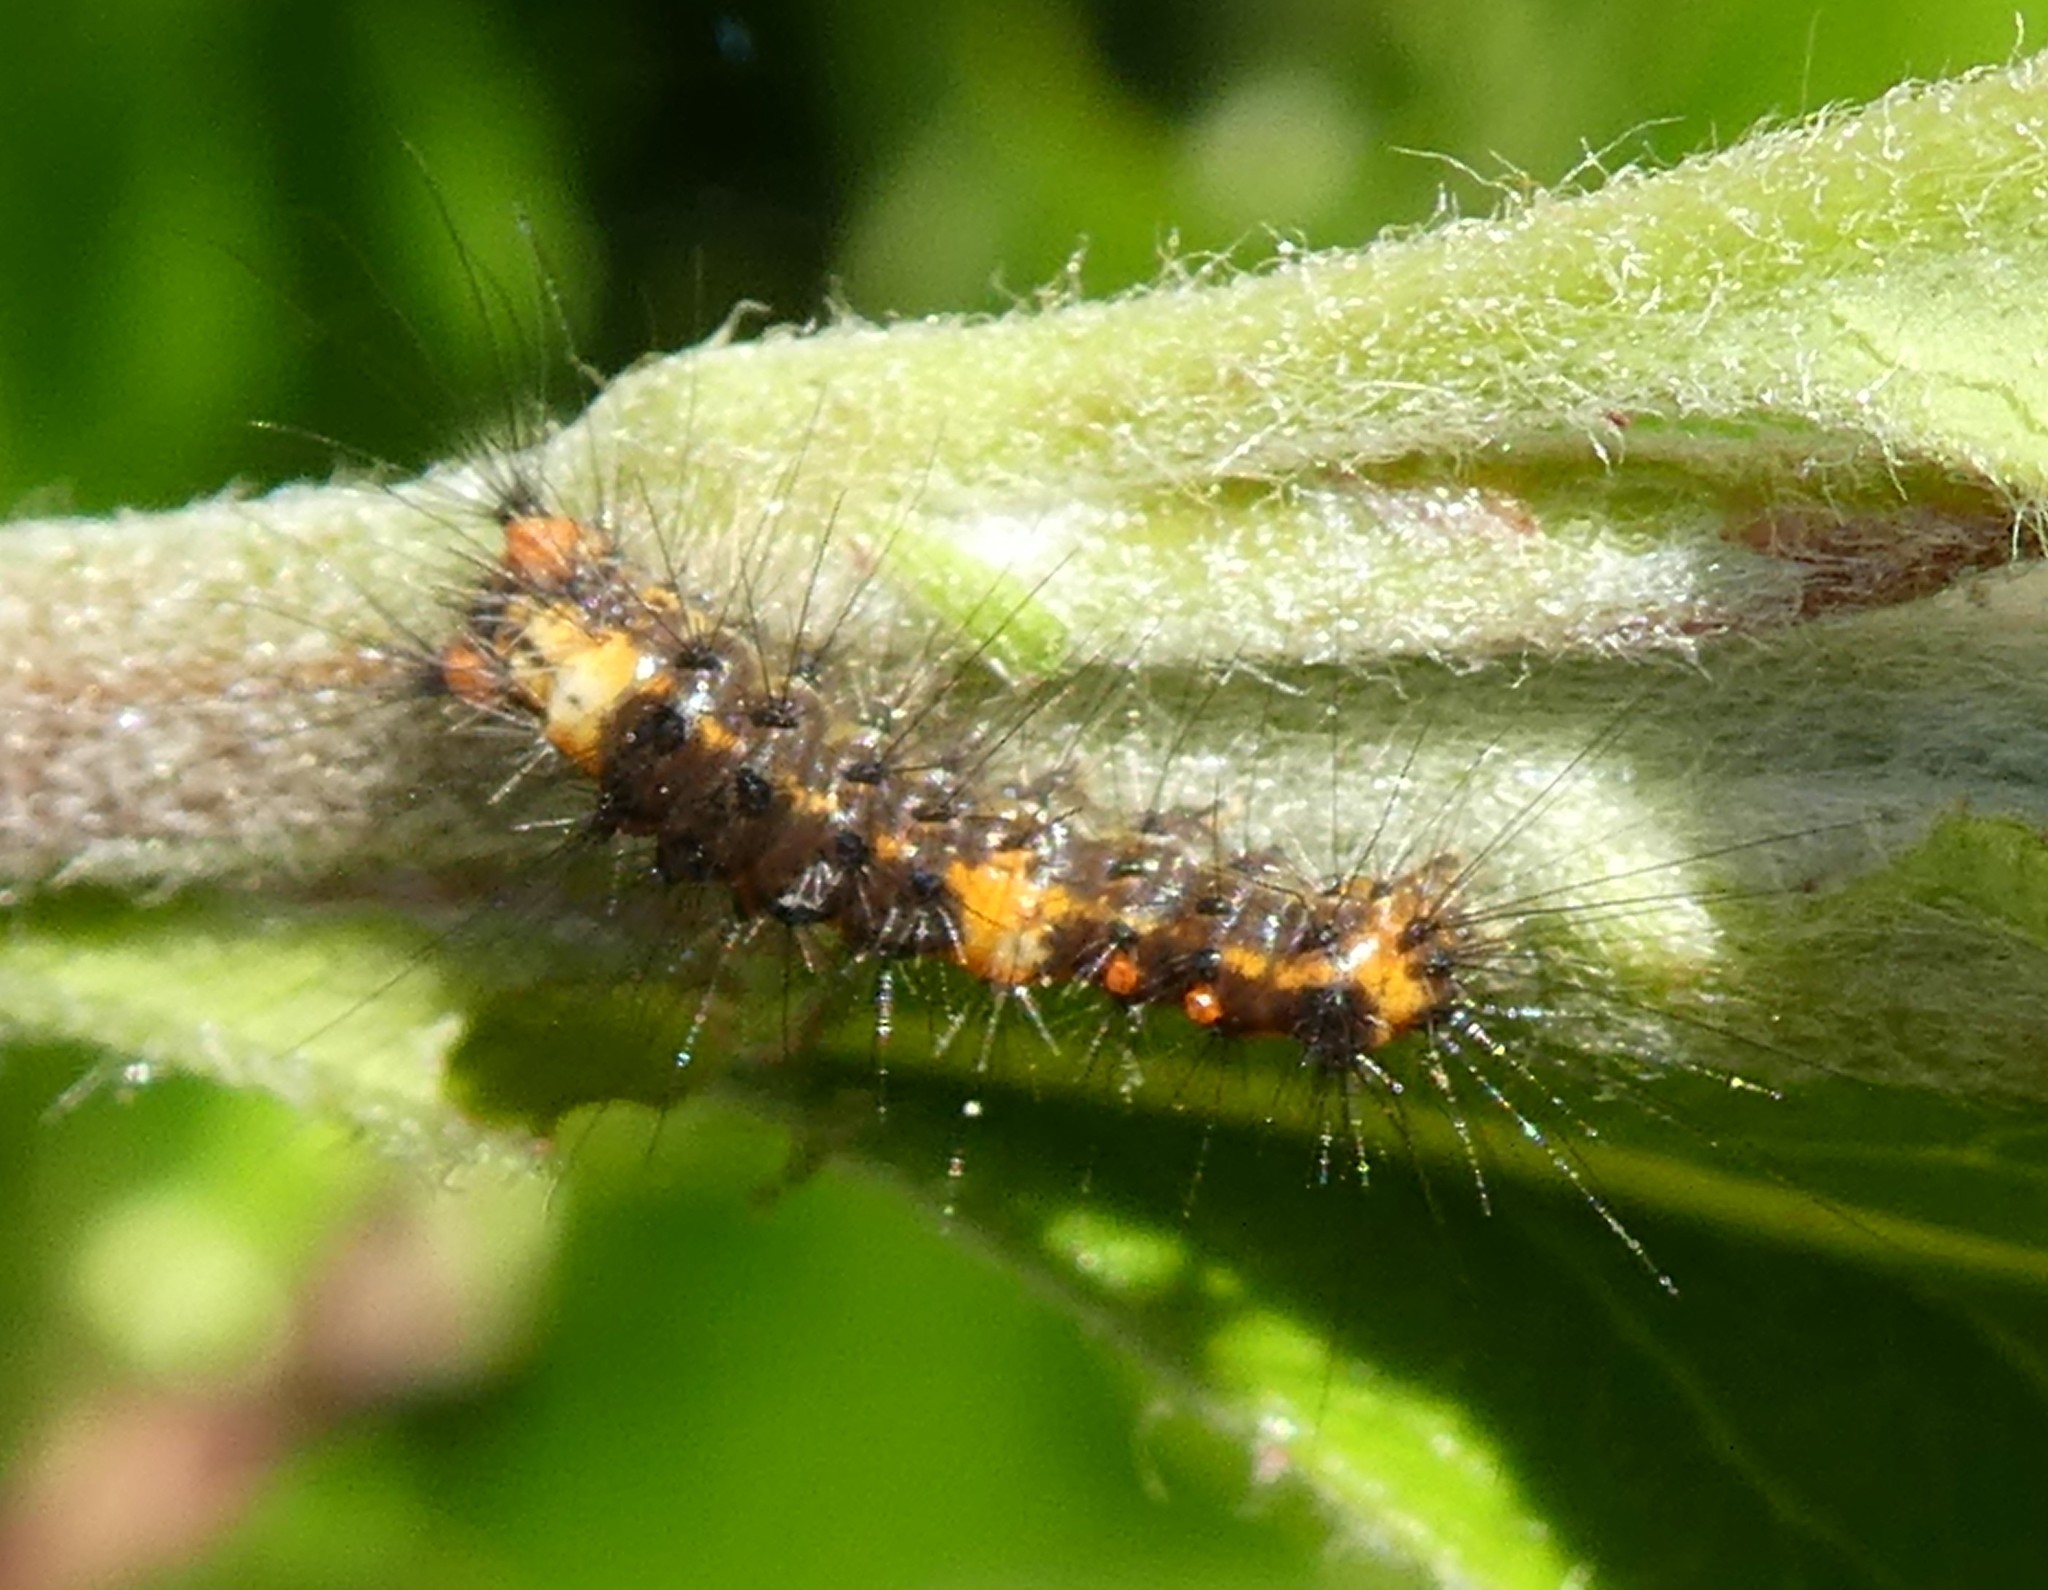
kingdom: Animalia
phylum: Arthropoda
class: Insecta
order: Lepidoptera
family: Erebidae
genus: Orgyia
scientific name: Orgyia antiqua
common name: Vapourer
